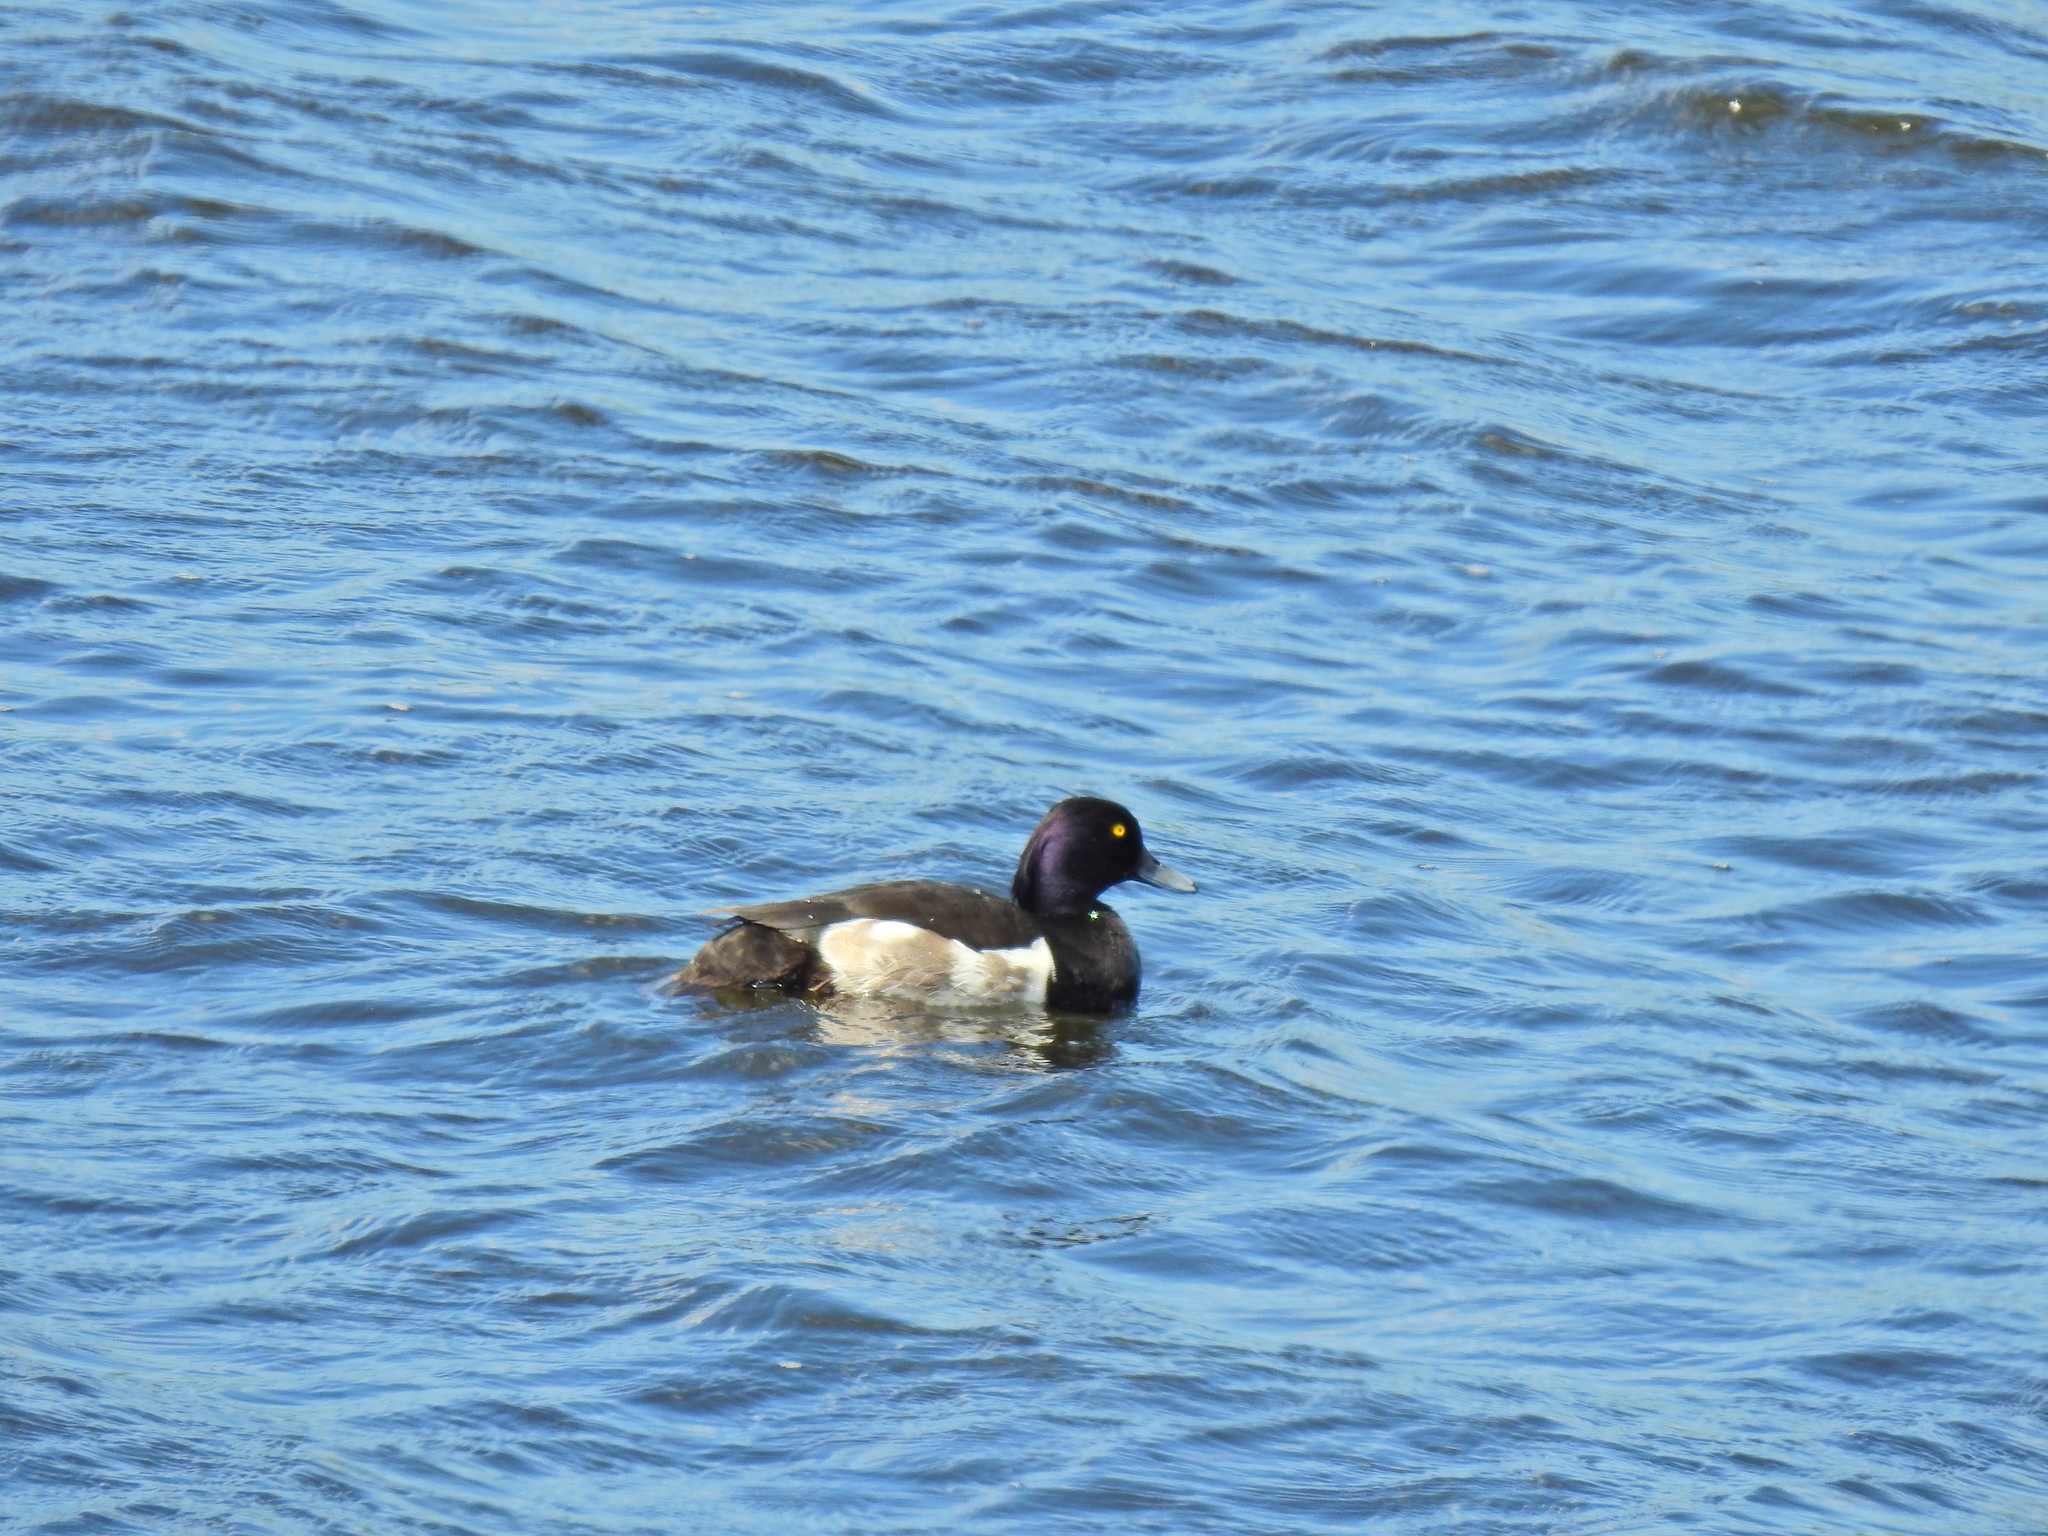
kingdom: Animalia
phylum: Chordata
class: Aves
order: Anseriformes
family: Anatidae
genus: Aythya
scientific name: Aythya fuligula
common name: Tufted duck
